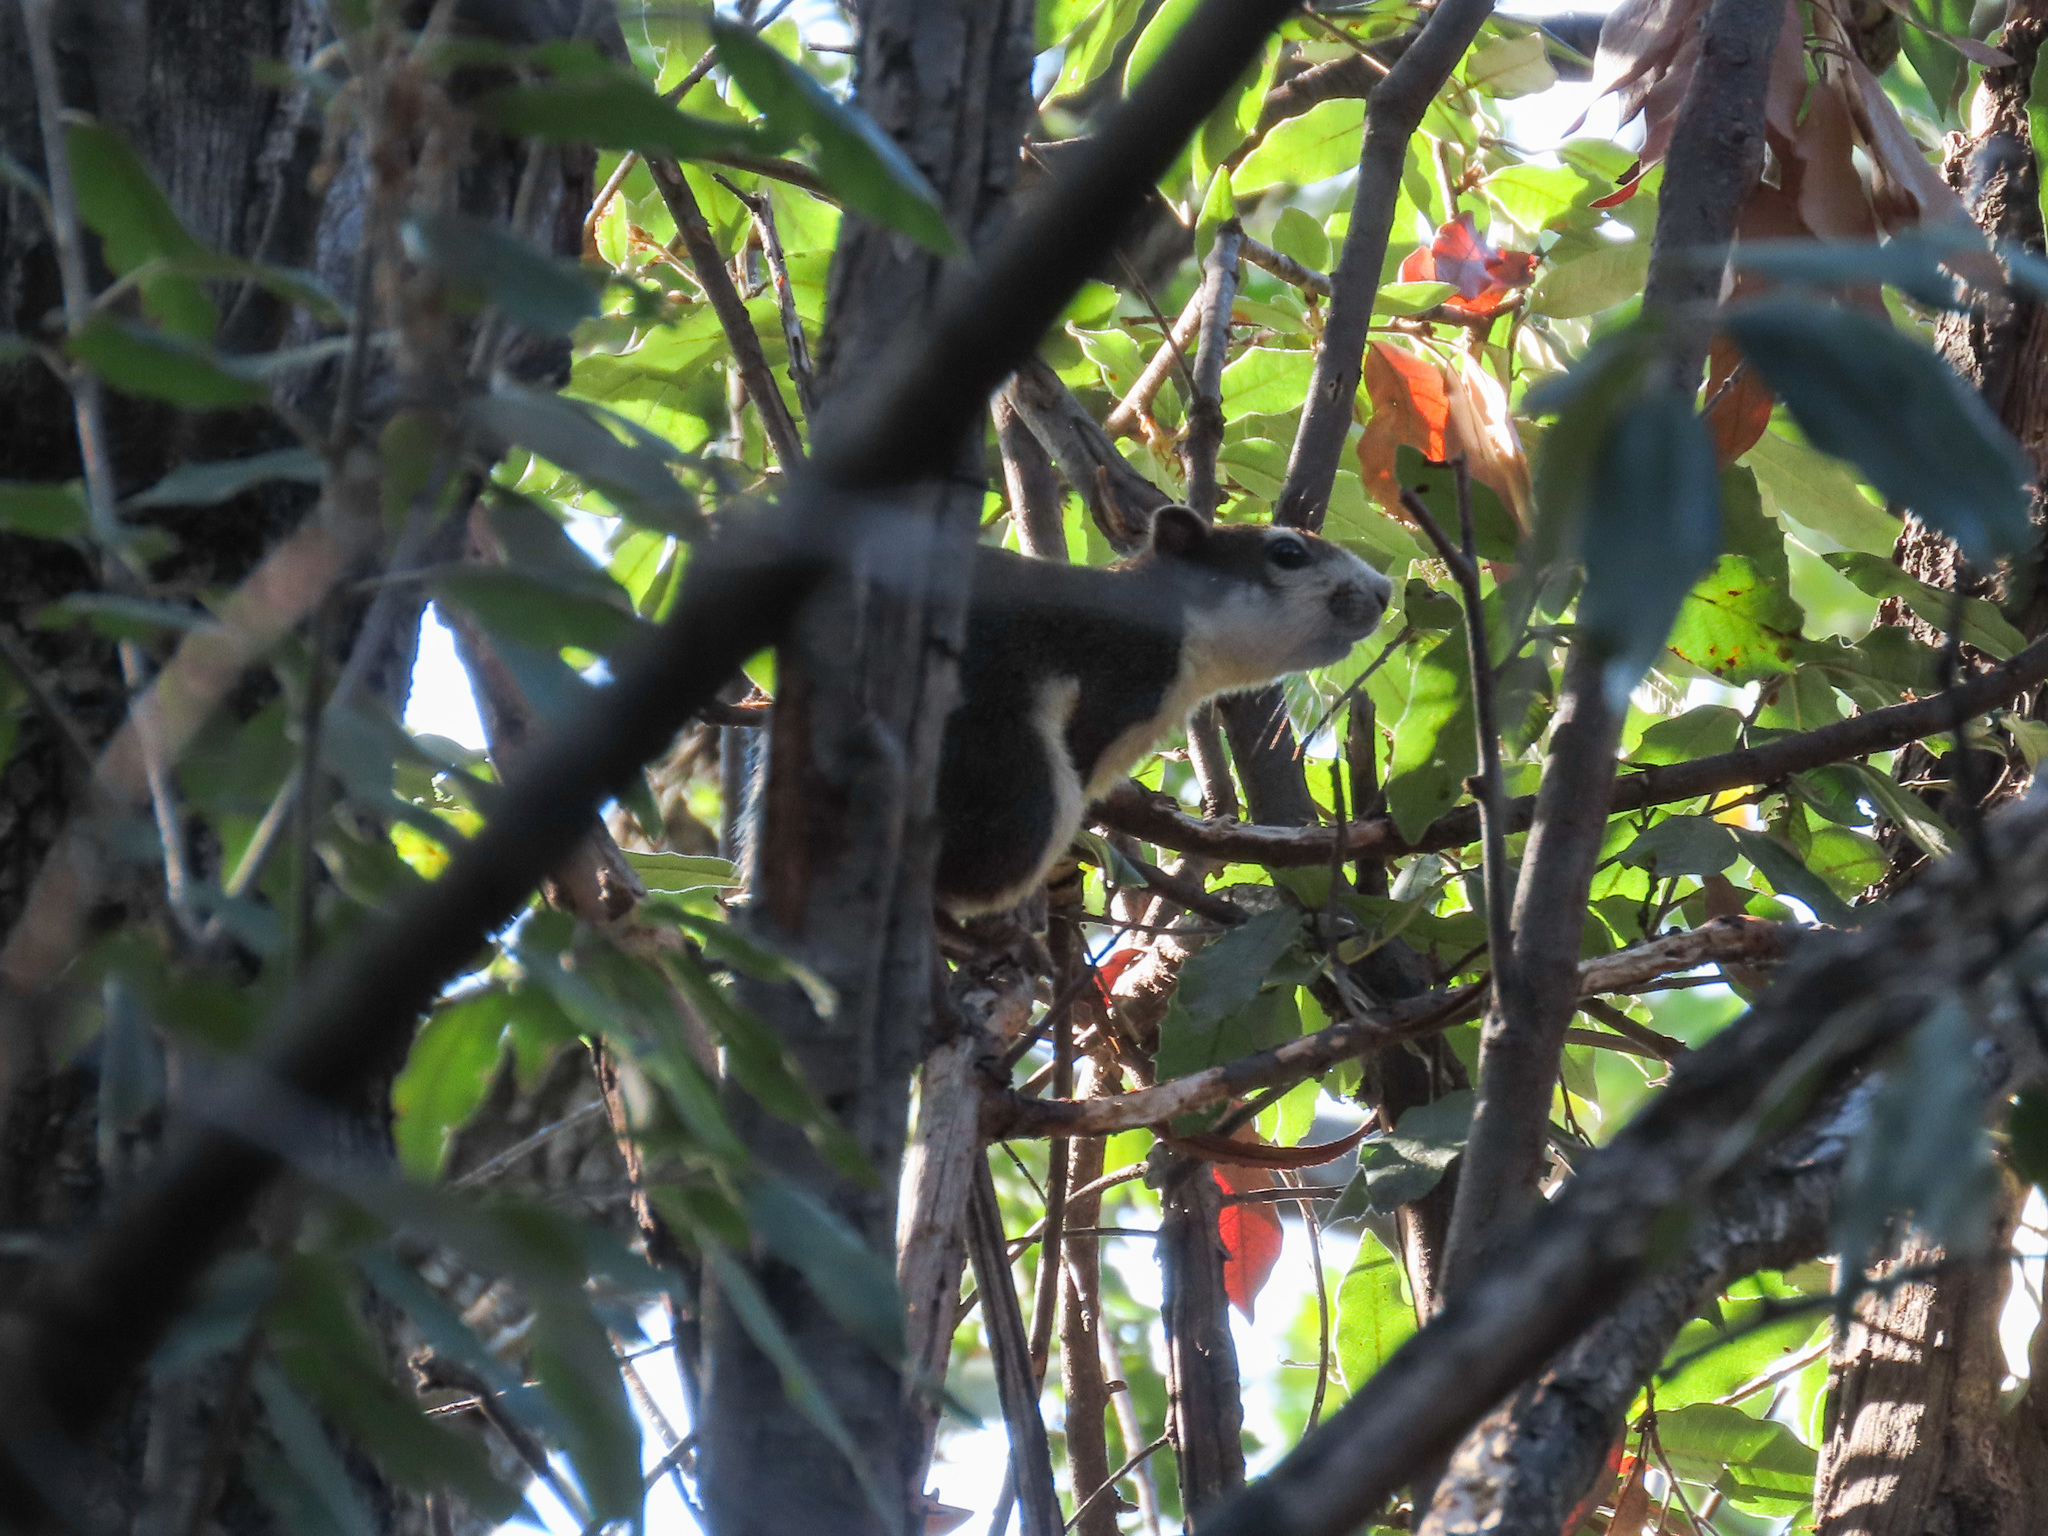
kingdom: Animalia
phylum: Chordata
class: Mammalia
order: Rodentia
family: Sciuridae
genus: Callosciurus
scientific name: Callosciurus finlaysonii
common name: Finlayson's squirrel
